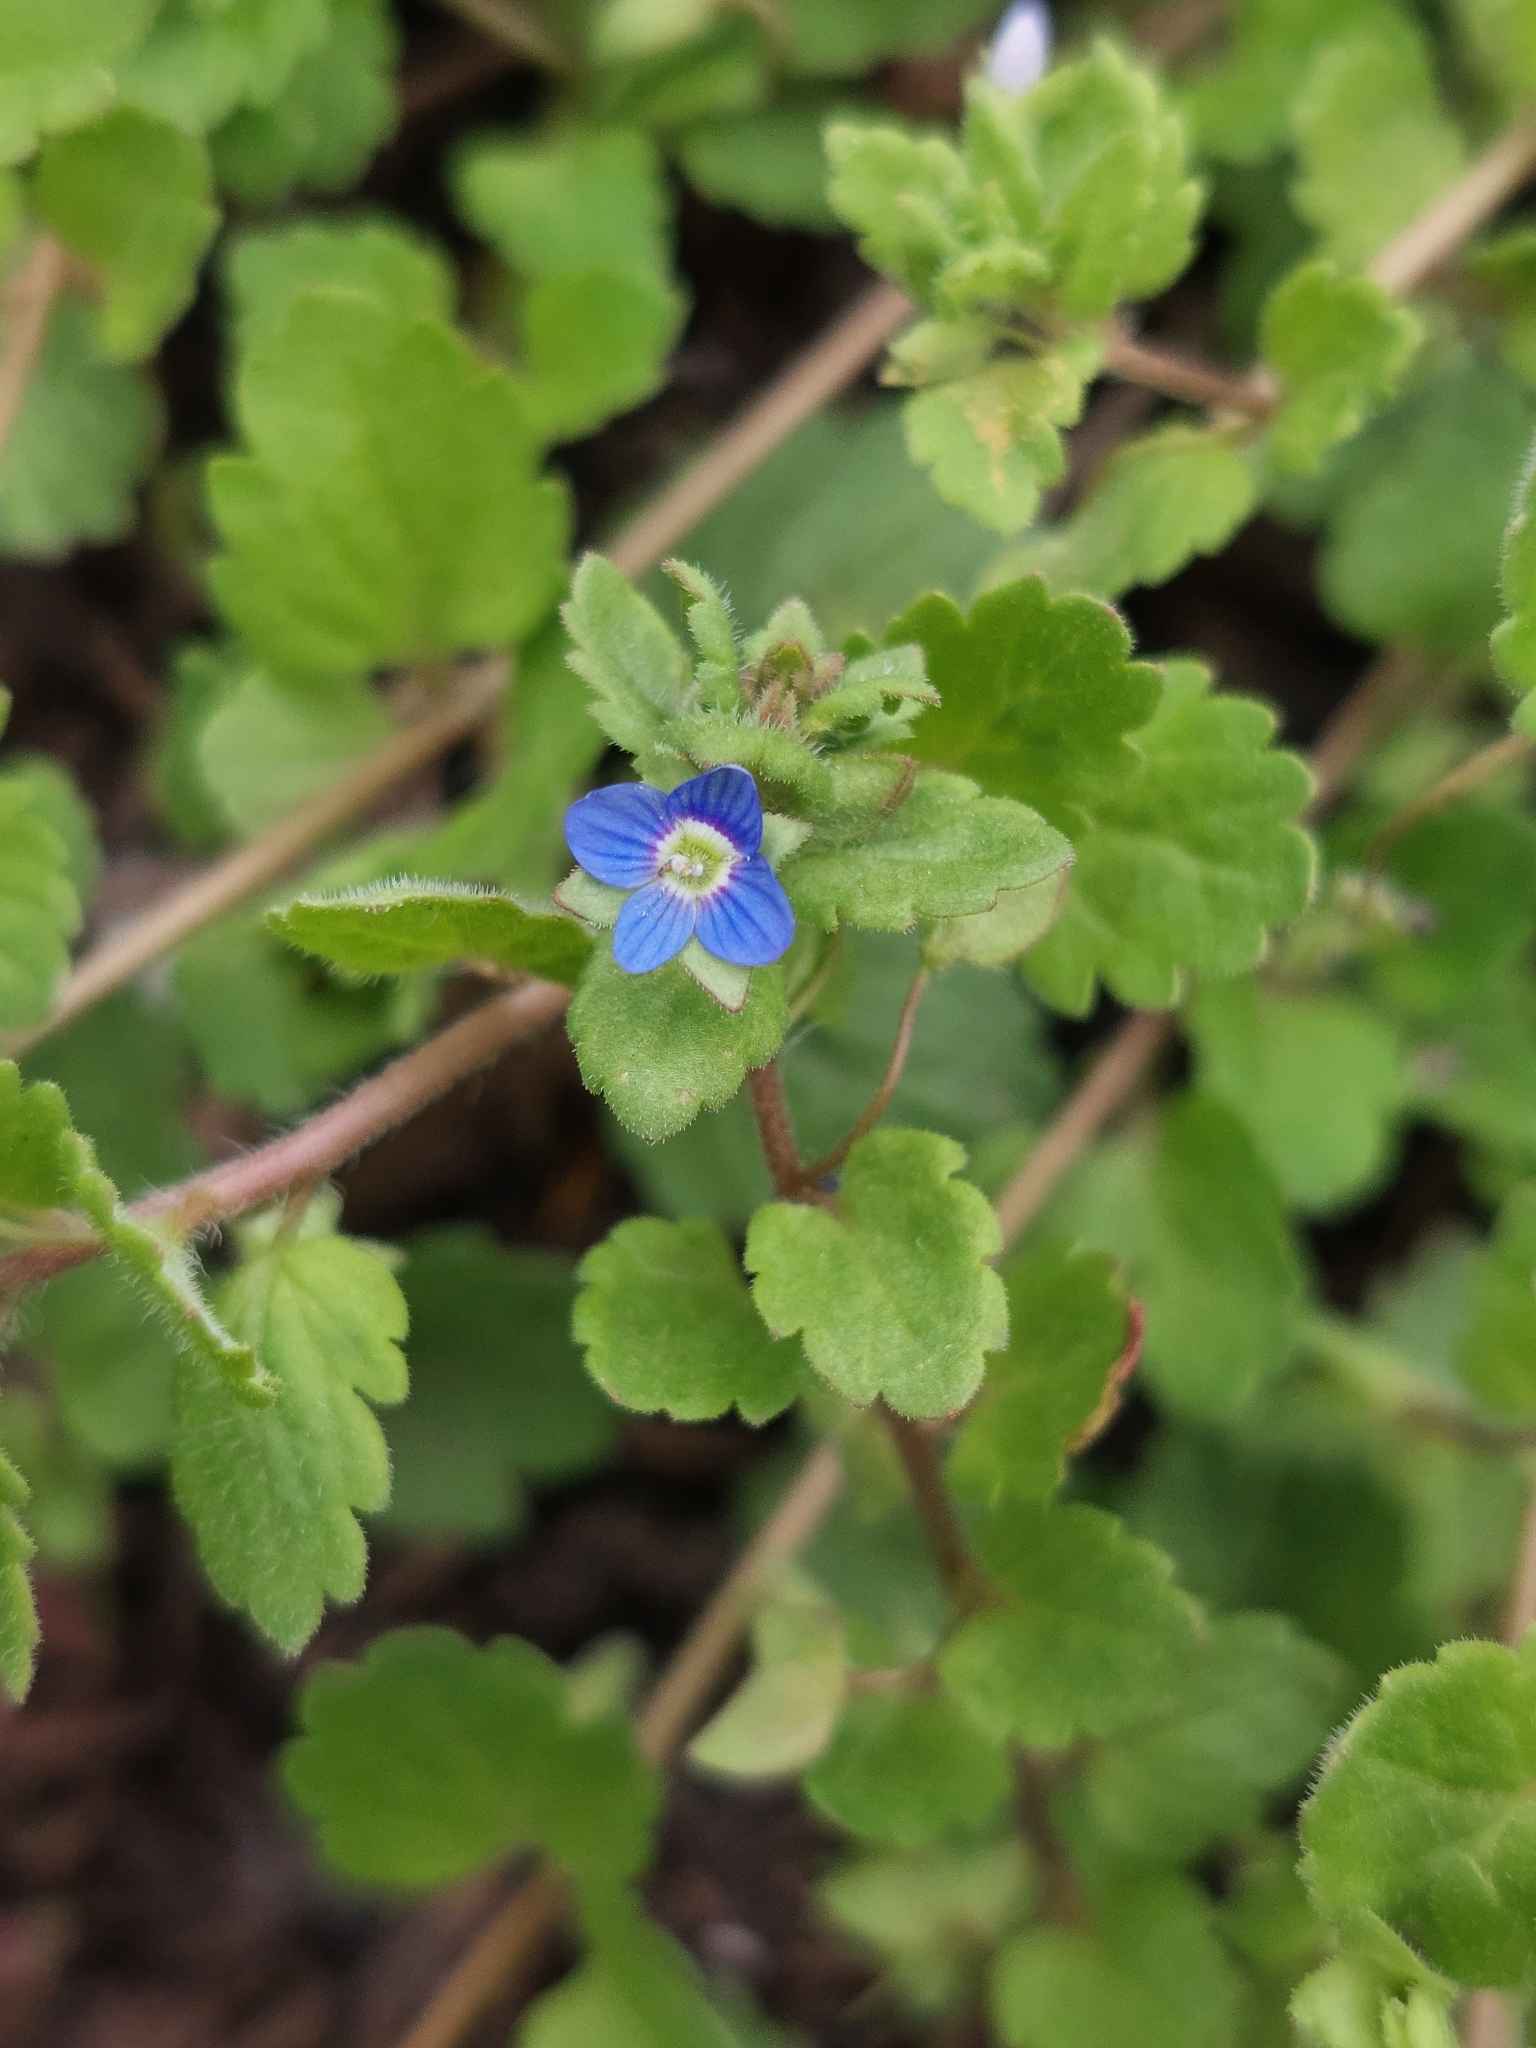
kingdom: Plantae
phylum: Tracheophyta
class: Magnoliopsida
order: Lamiales
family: Plantaginaceae
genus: Veronica
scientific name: Veronica polita
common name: Grey field-speedwell
